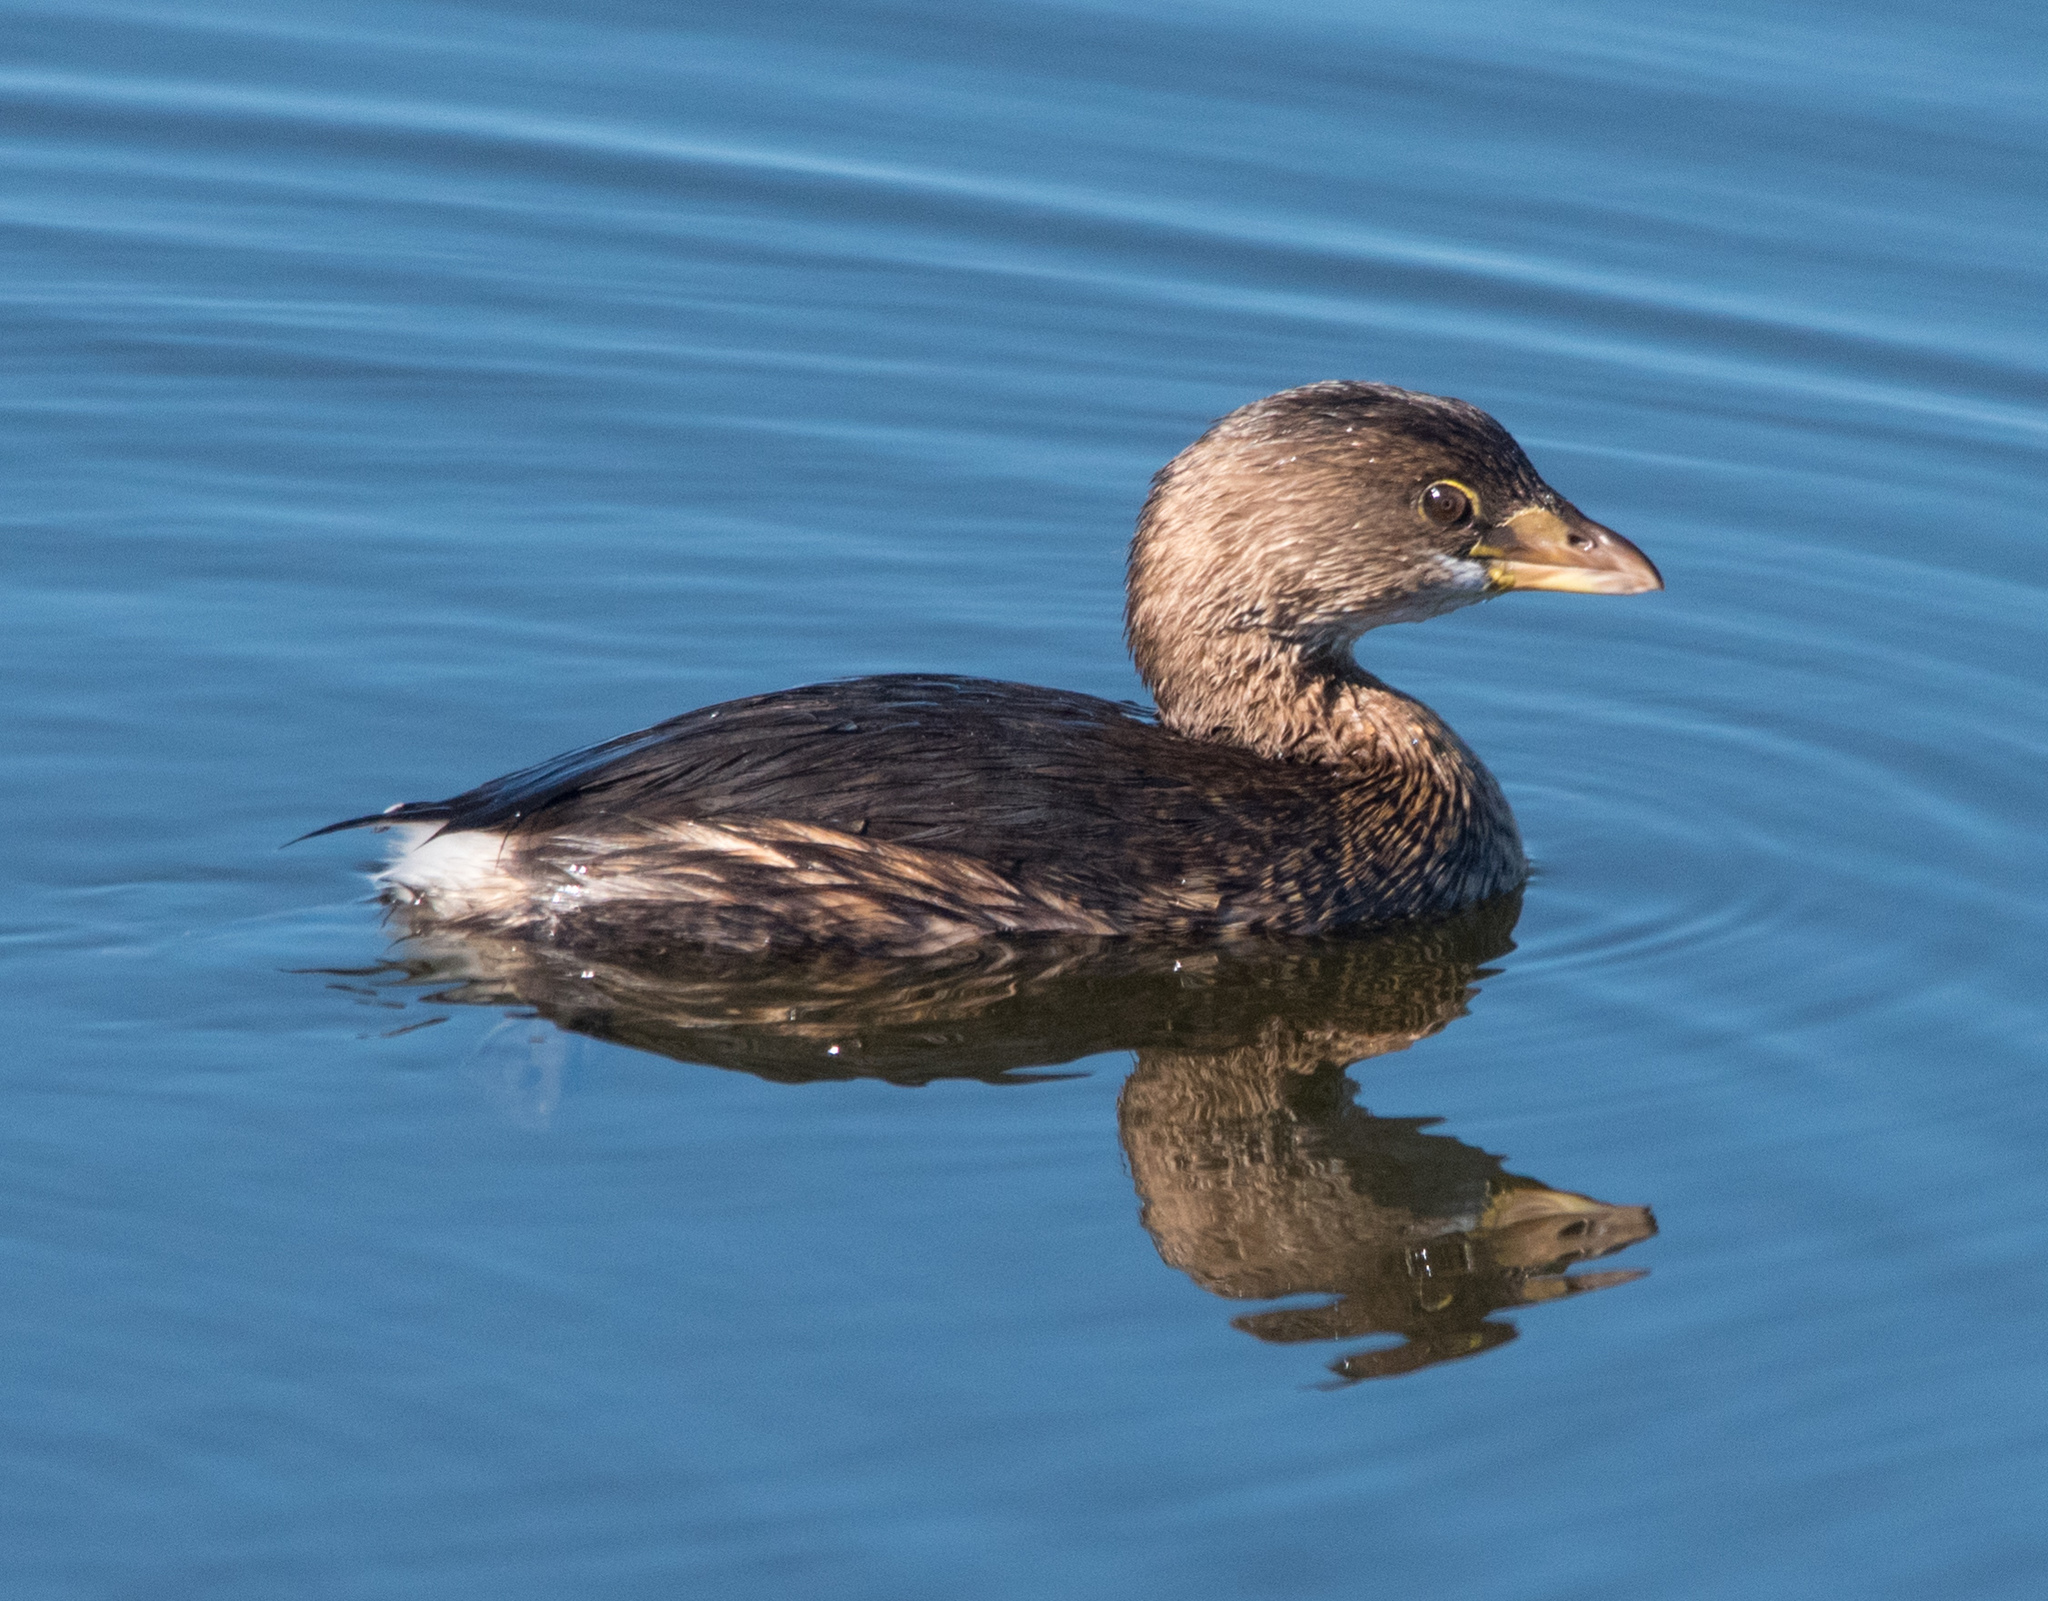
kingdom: Animalia
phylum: Chordata
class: Aves
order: Podicipediformes
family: Podicipedidae
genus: Podilymbus
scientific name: Podilymbus podiceps
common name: Pied-billed grebe
